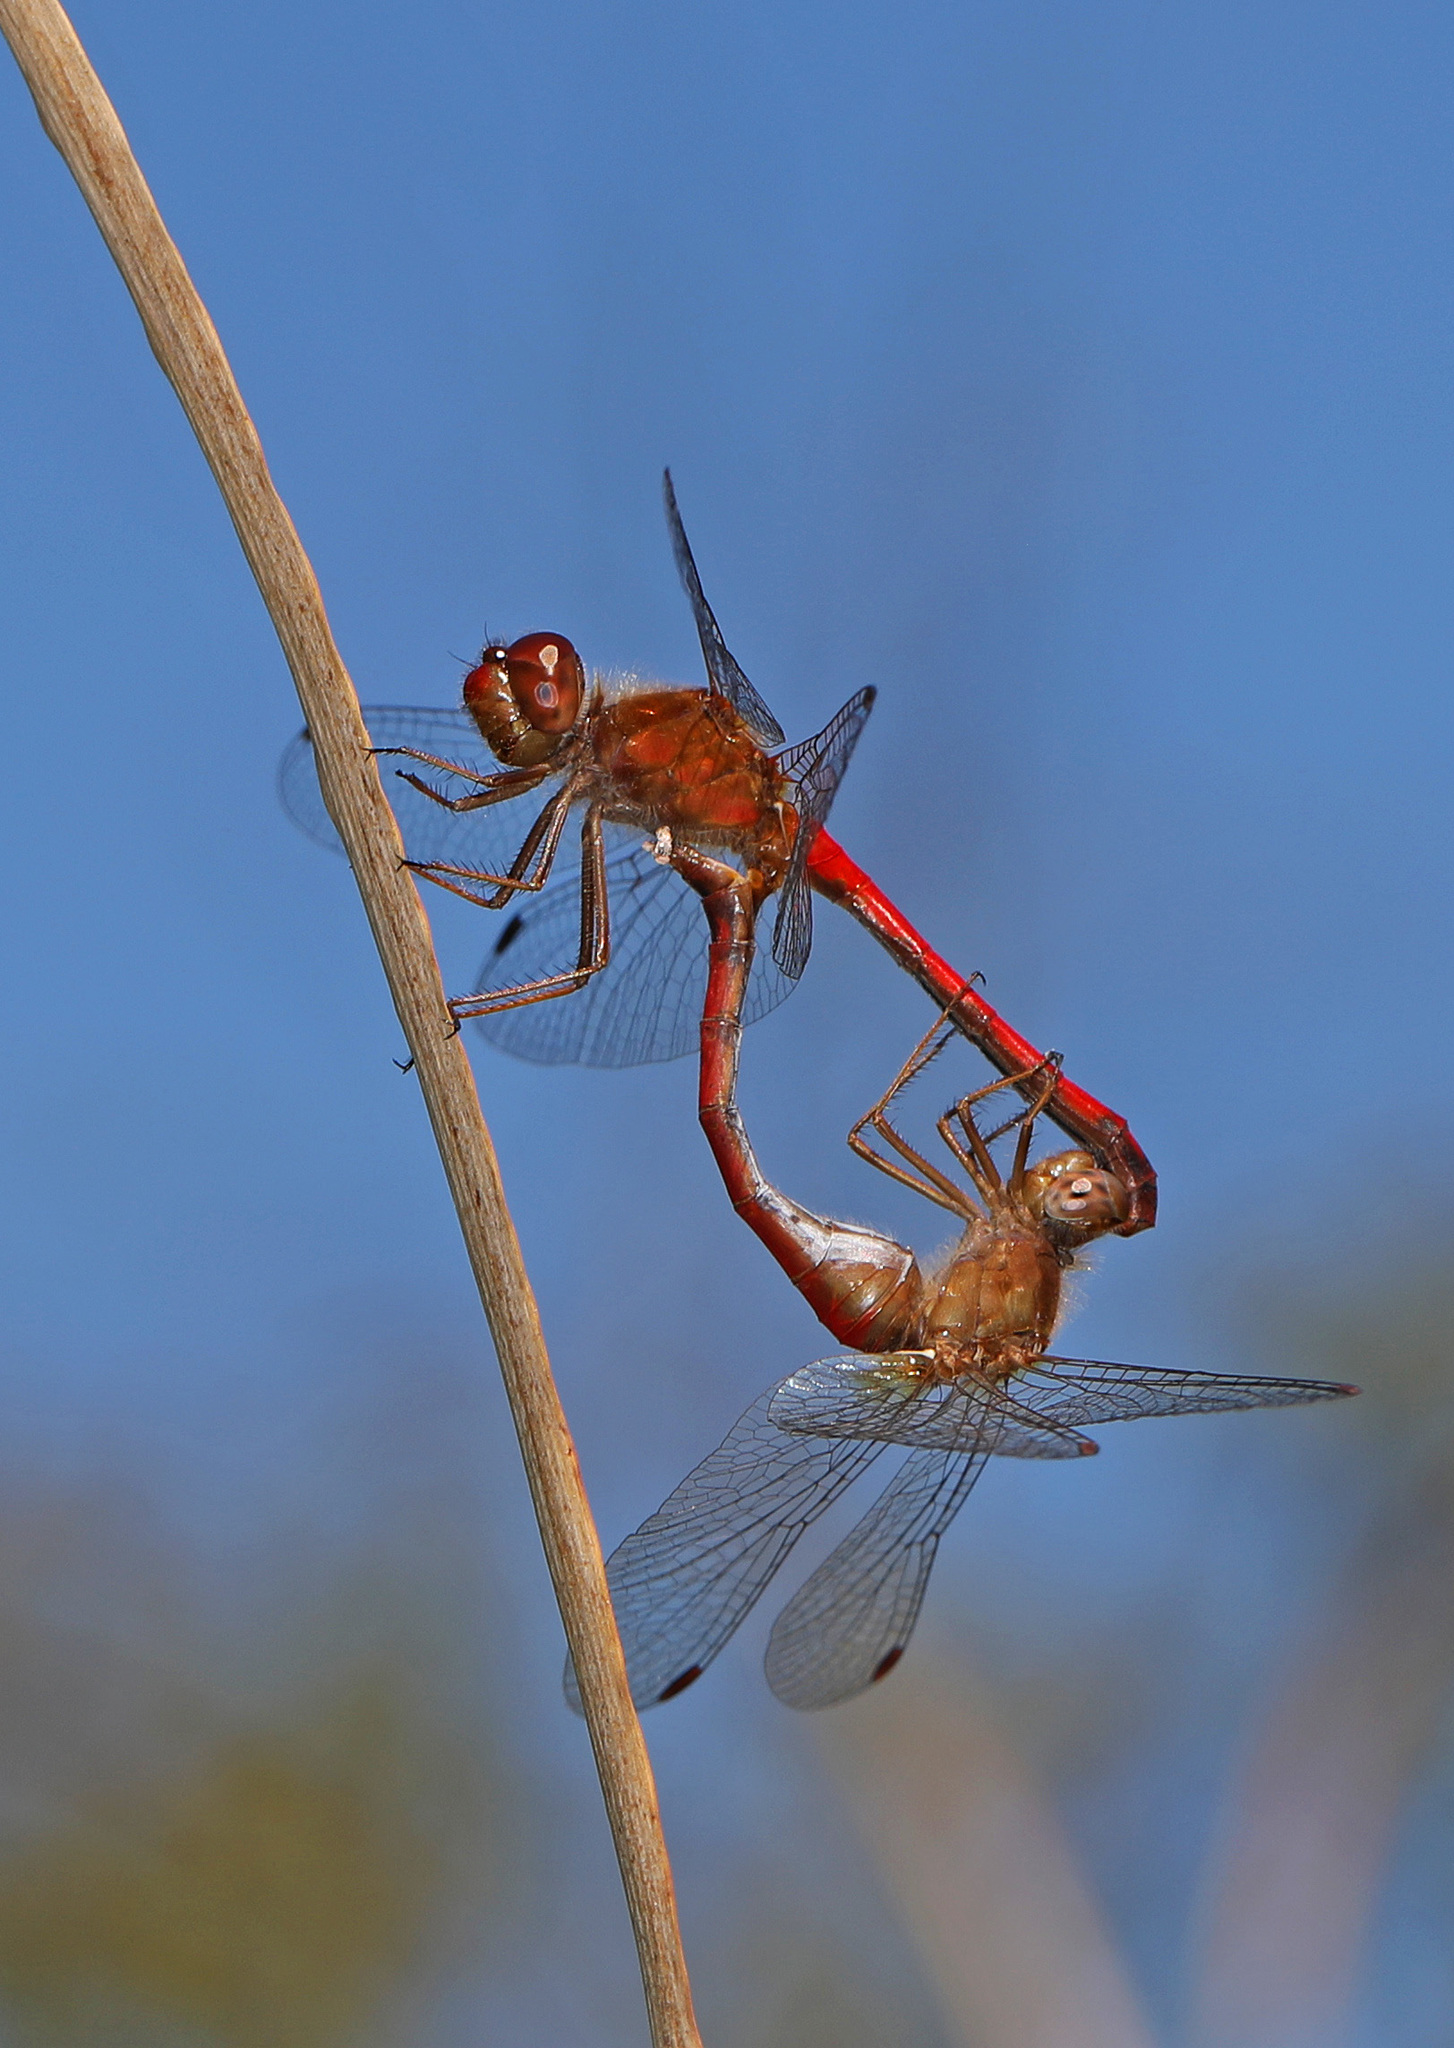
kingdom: Animalia
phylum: Arthropoda
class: Insecta
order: Odonata
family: Libellulidae
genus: Sympetrum
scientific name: Sympetrum vicinum
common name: Autumn meadowhawk
